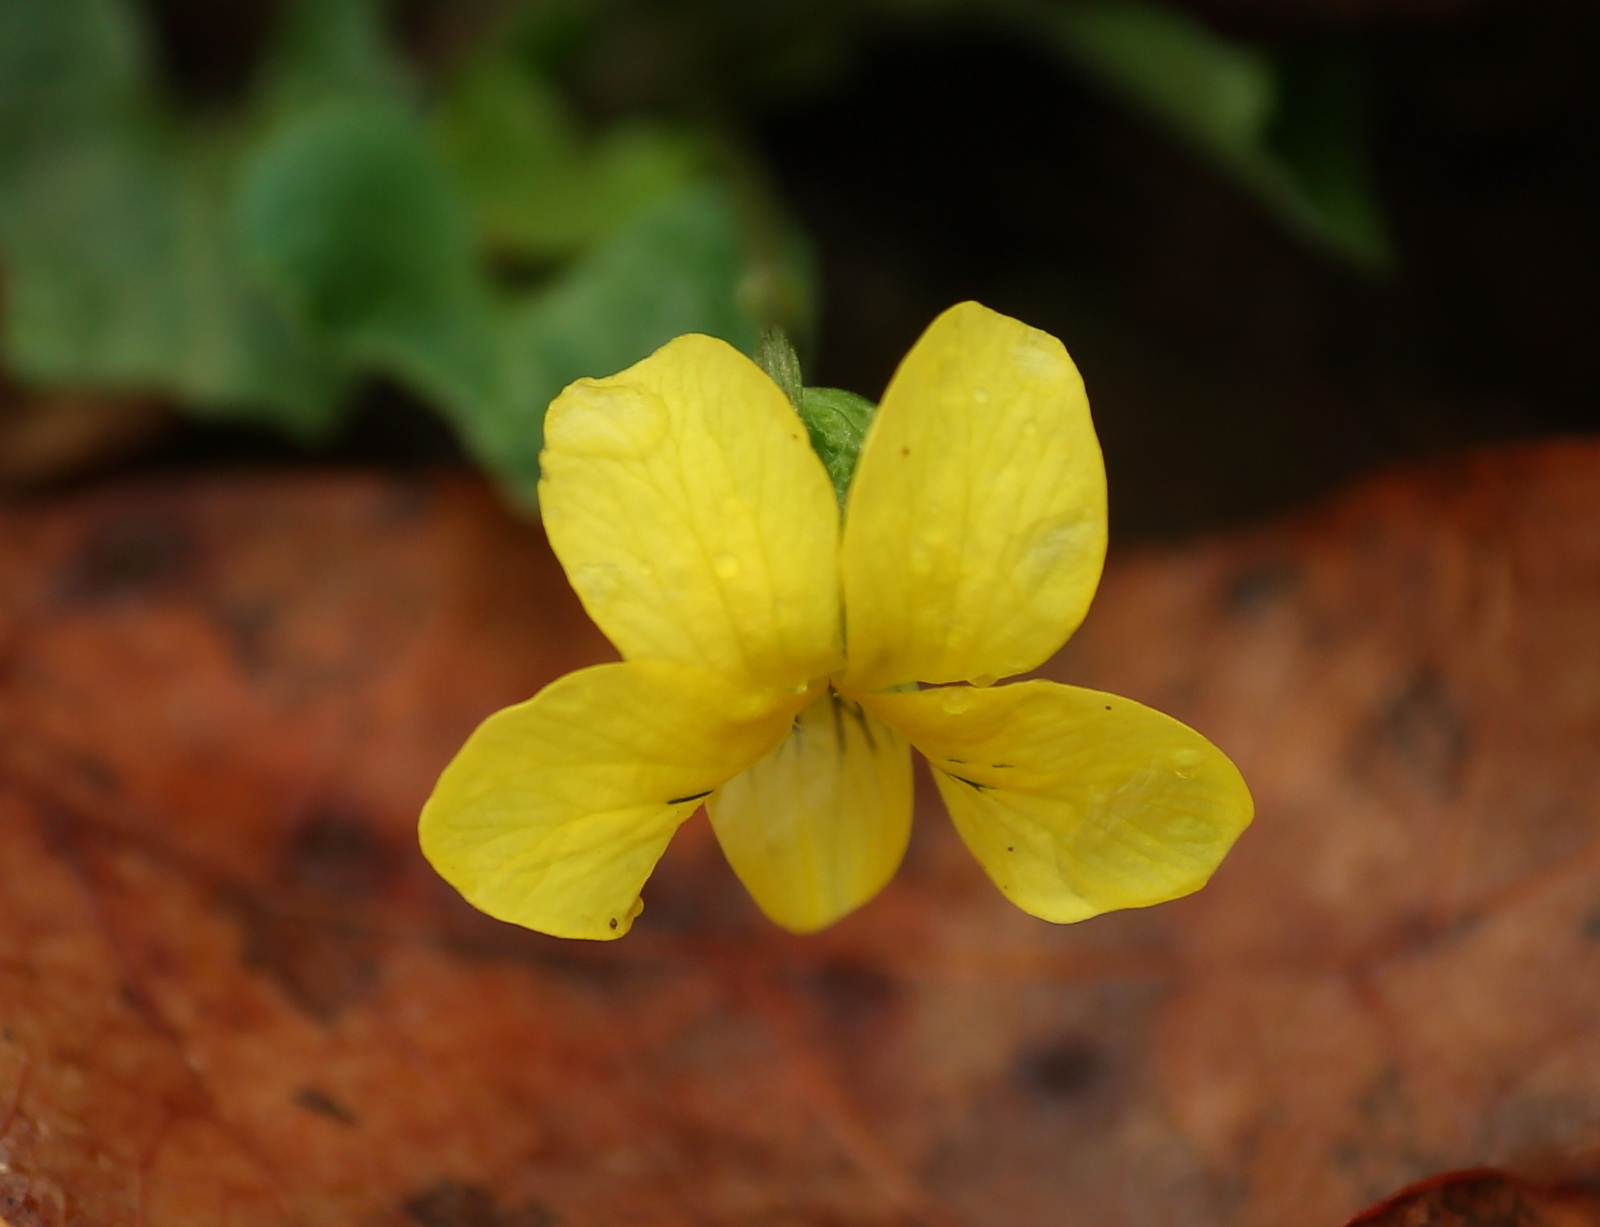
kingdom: Plantae
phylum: Tracheophyta
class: Magnoliopsida
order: Malpighiales
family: Violaceae
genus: Viola
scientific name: Viola eriocarpa
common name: Smooth yellow violet
